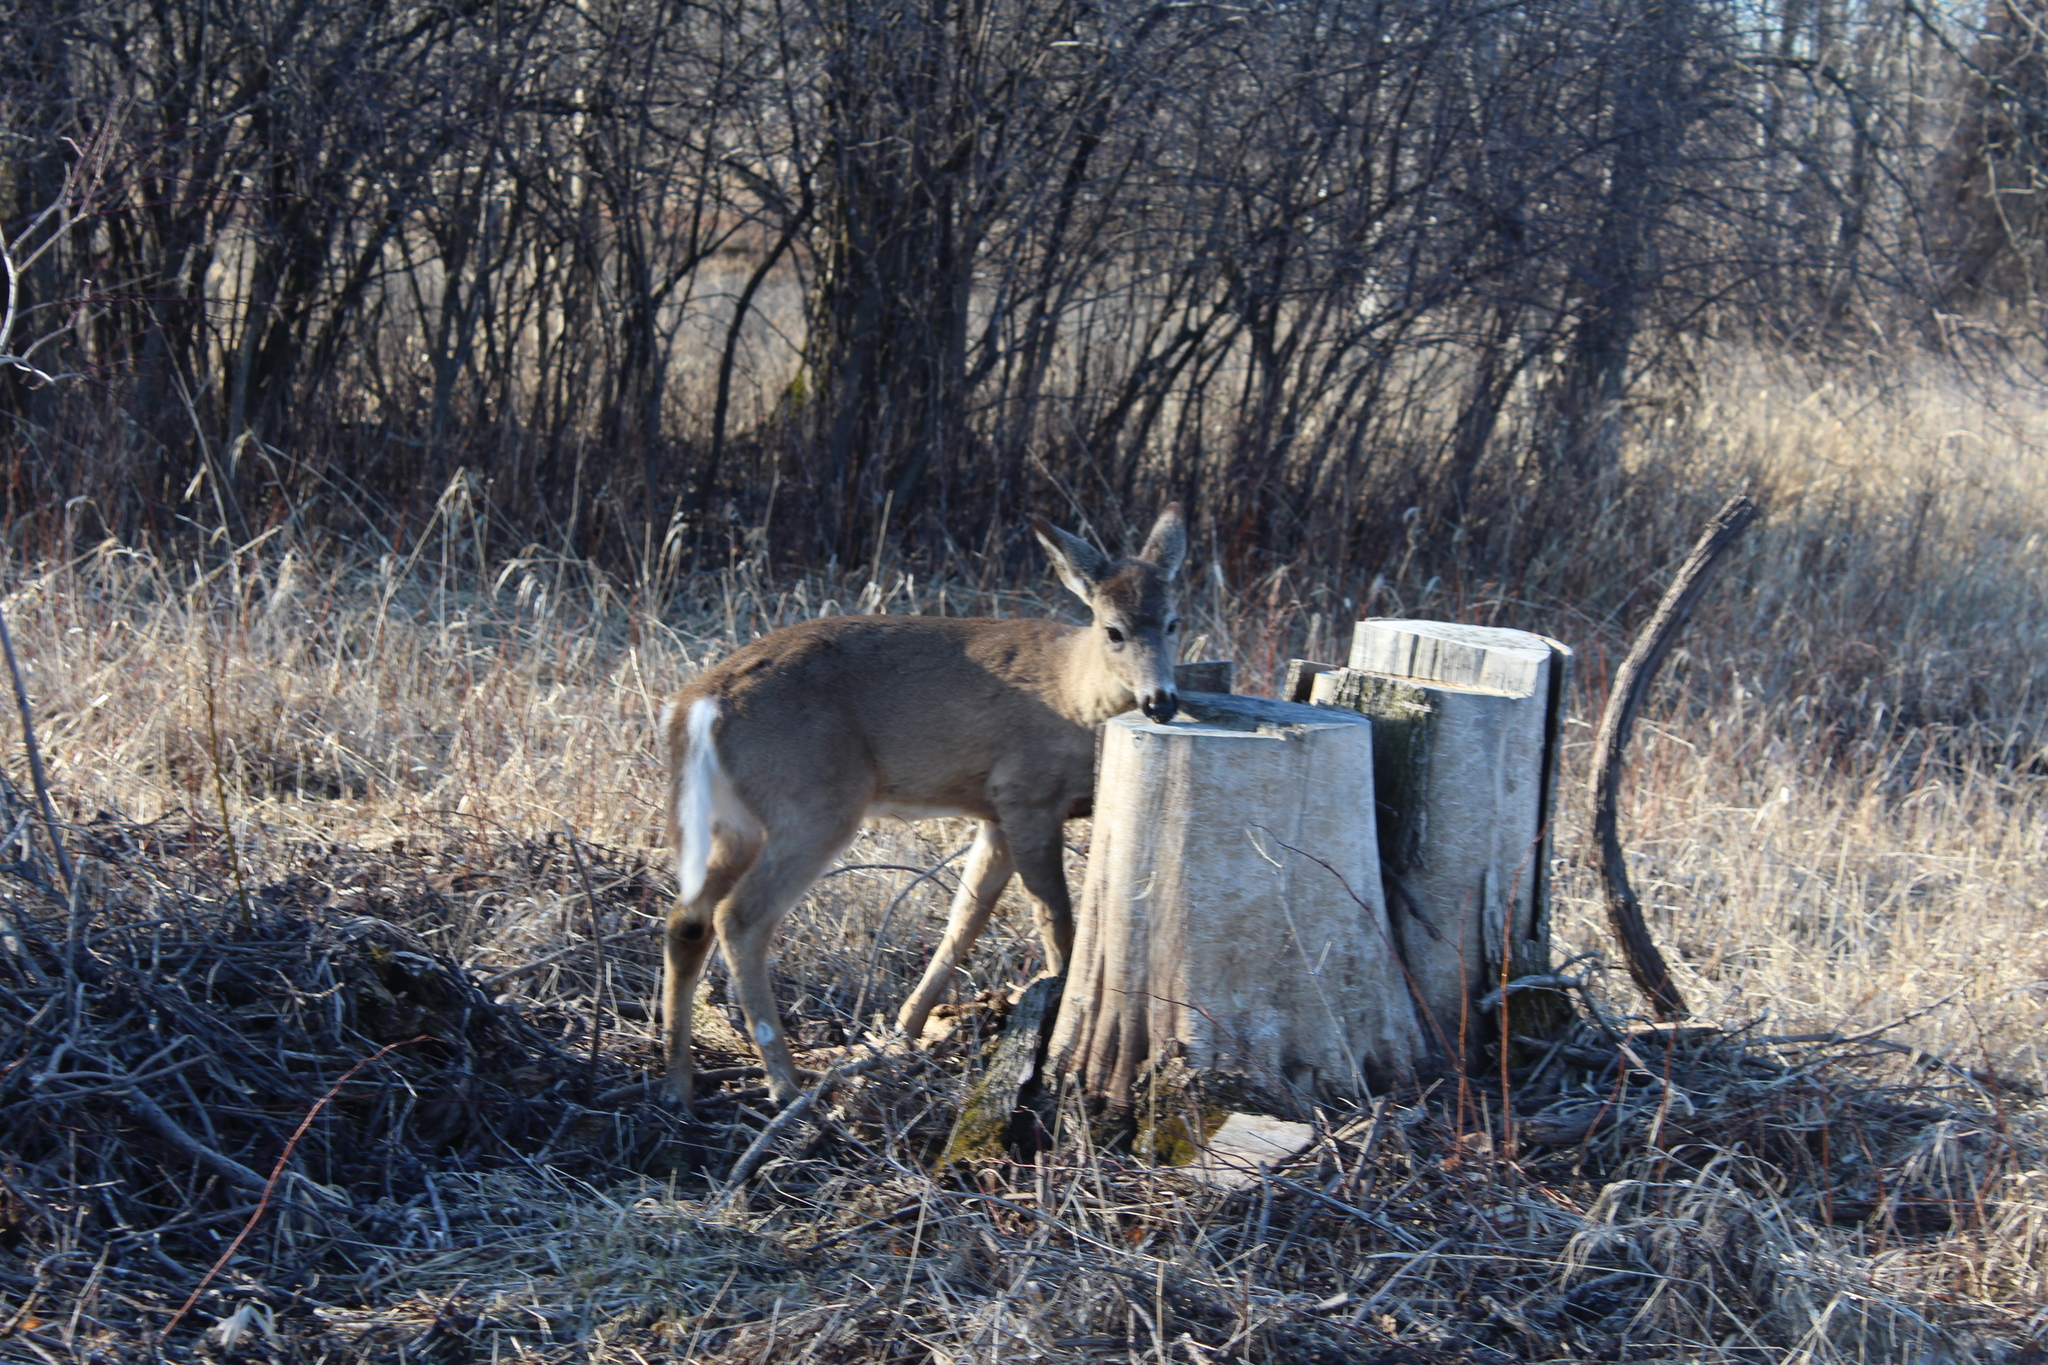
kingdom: Animalia
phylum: Chordata
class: Mammalia
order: Artiodactyla
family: Cervidae
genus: Odocoileus
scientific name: Odocoileus virginianus
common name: White-tailed deer
